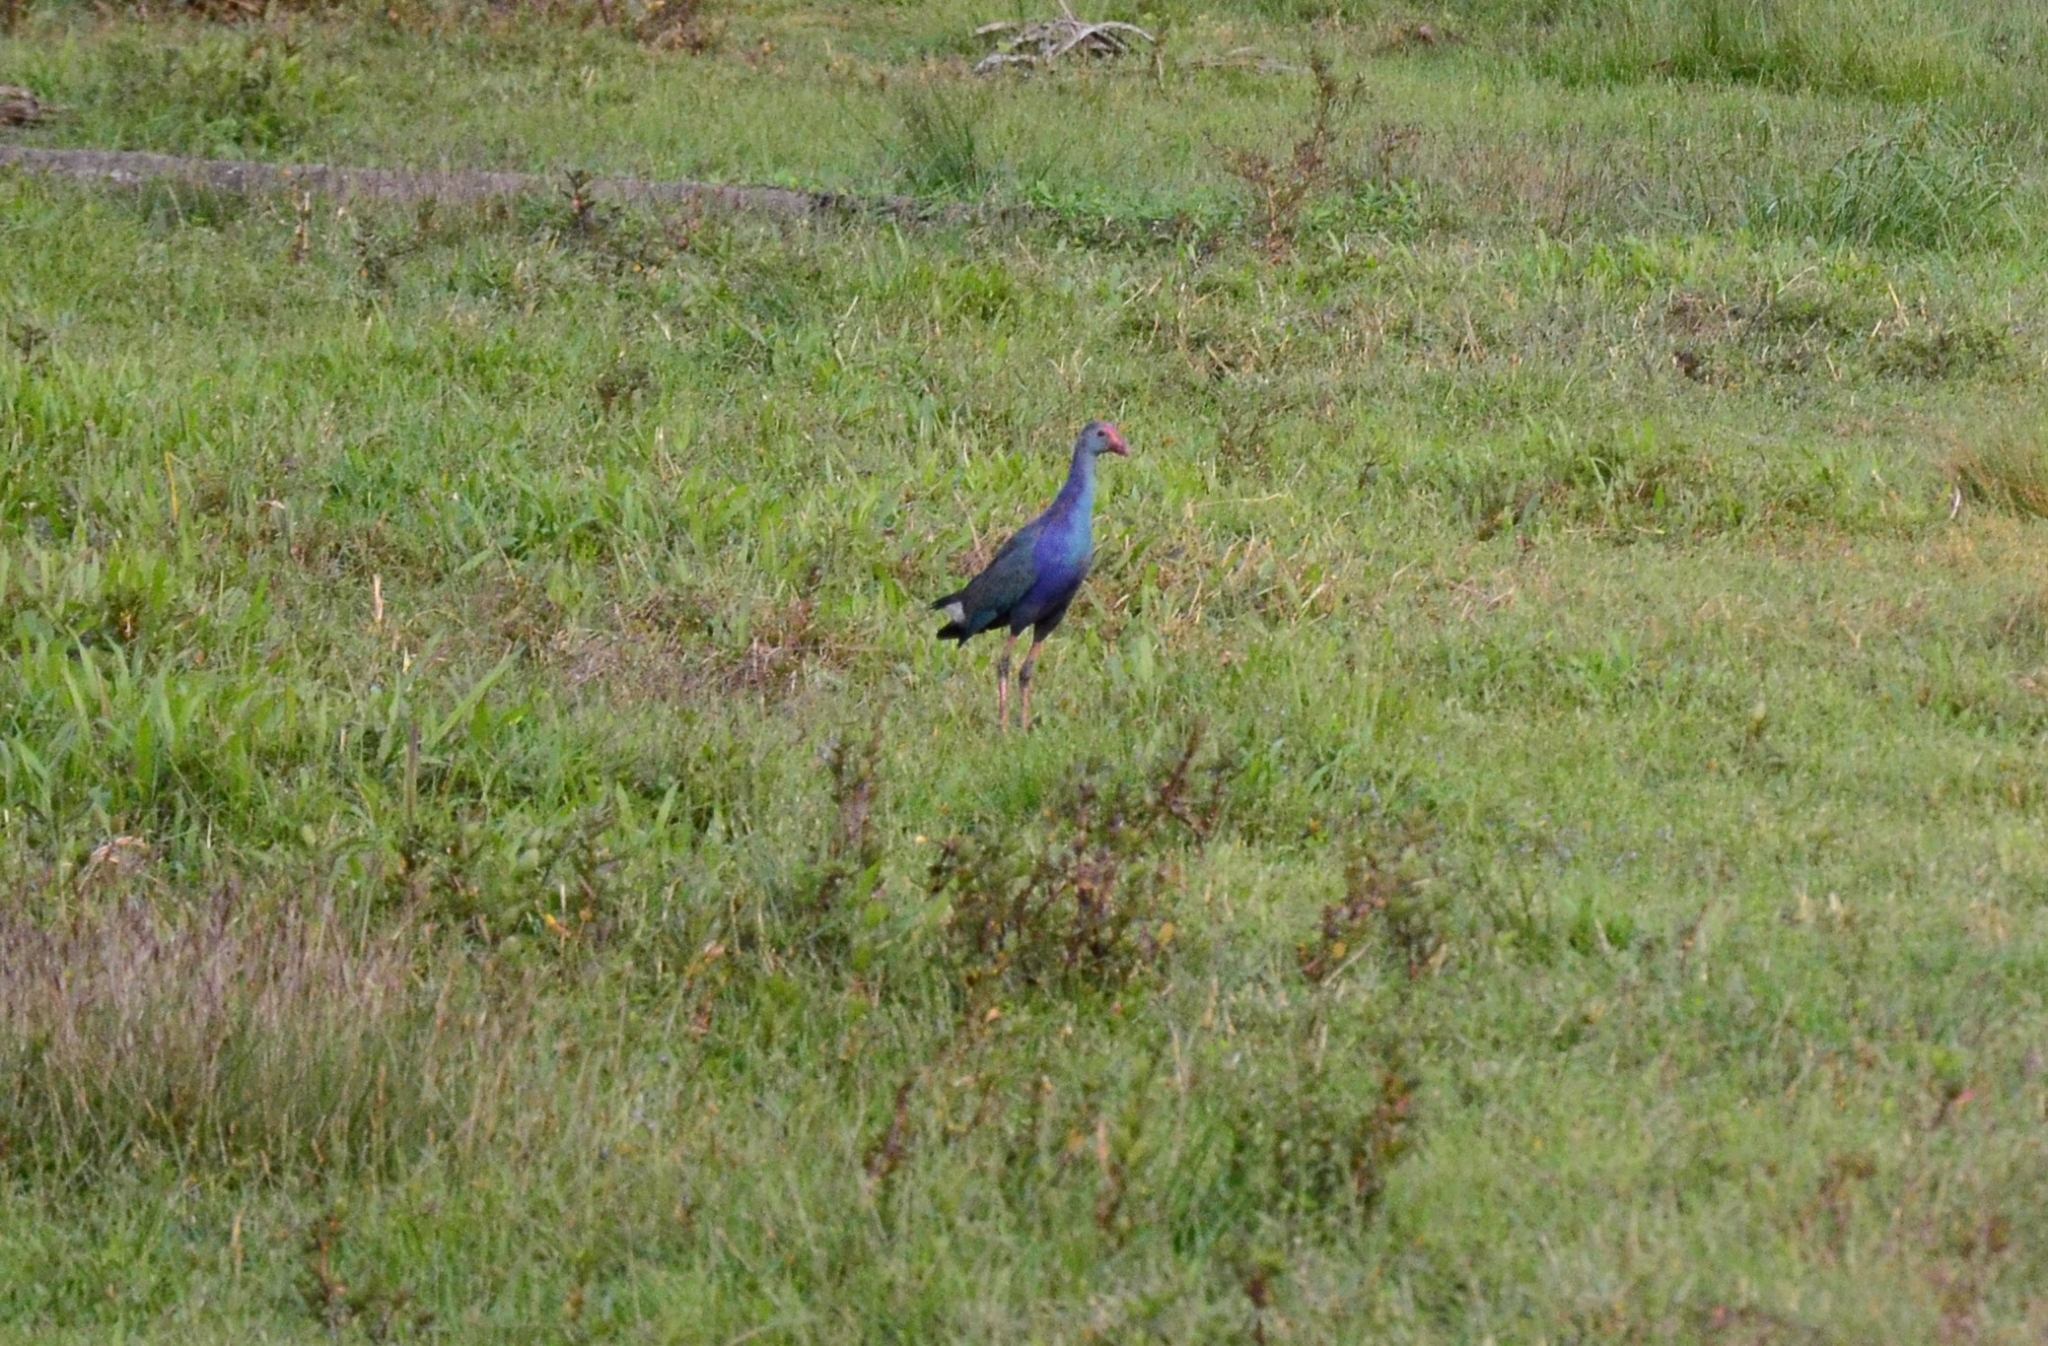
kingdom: Animalia
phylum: Chordata
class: Aves
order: Gruiformes
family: Rallidae
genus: Porphyrio
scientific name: Porphyrio porphyrio
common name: Purple swamphen
